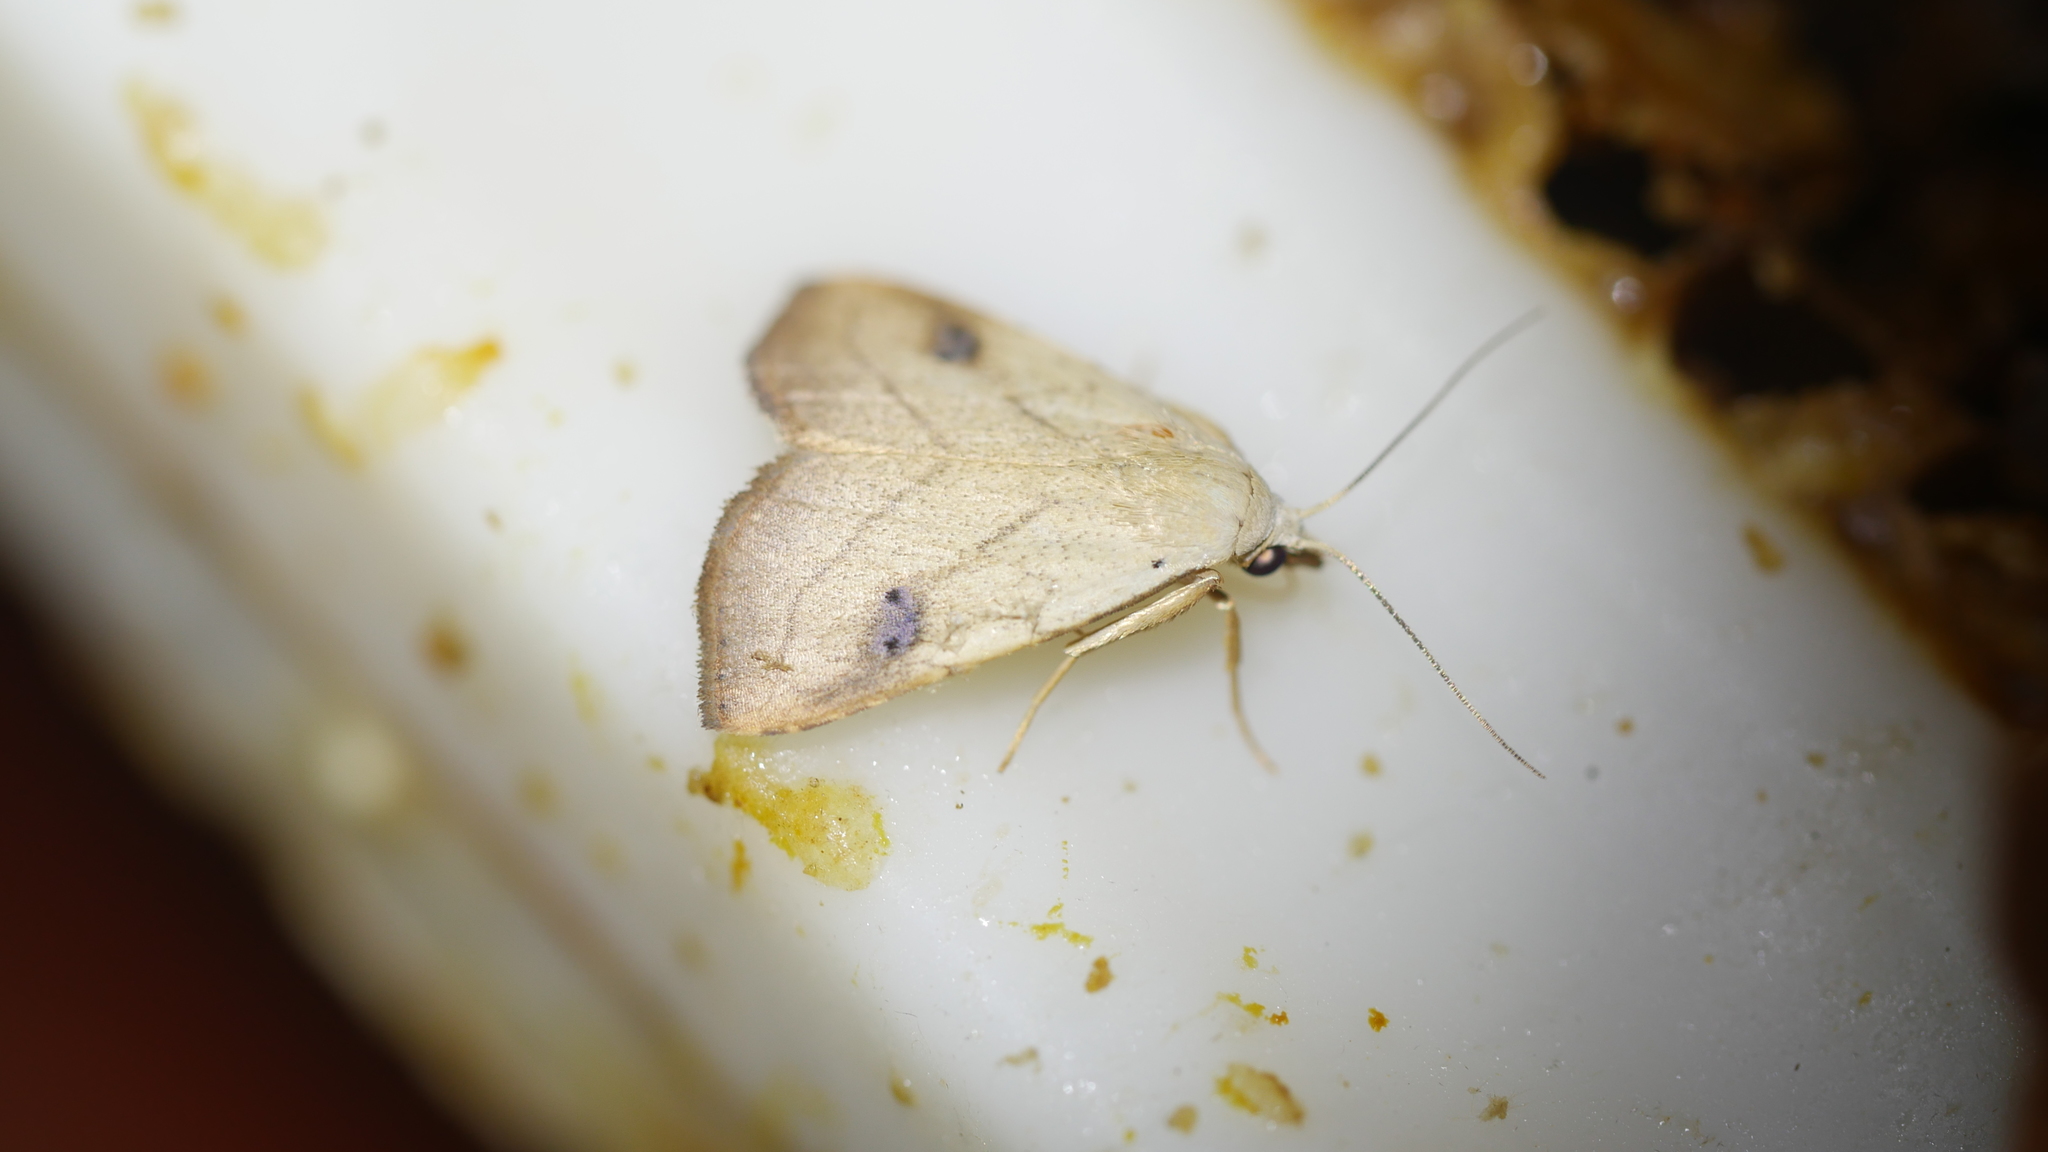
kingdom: Animalia
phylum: Arthropoda
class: Insecta
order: Lepidoptera
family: Erebidae
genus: Rivula
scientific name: Rivula propinqualis
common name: Spotted grass moth
